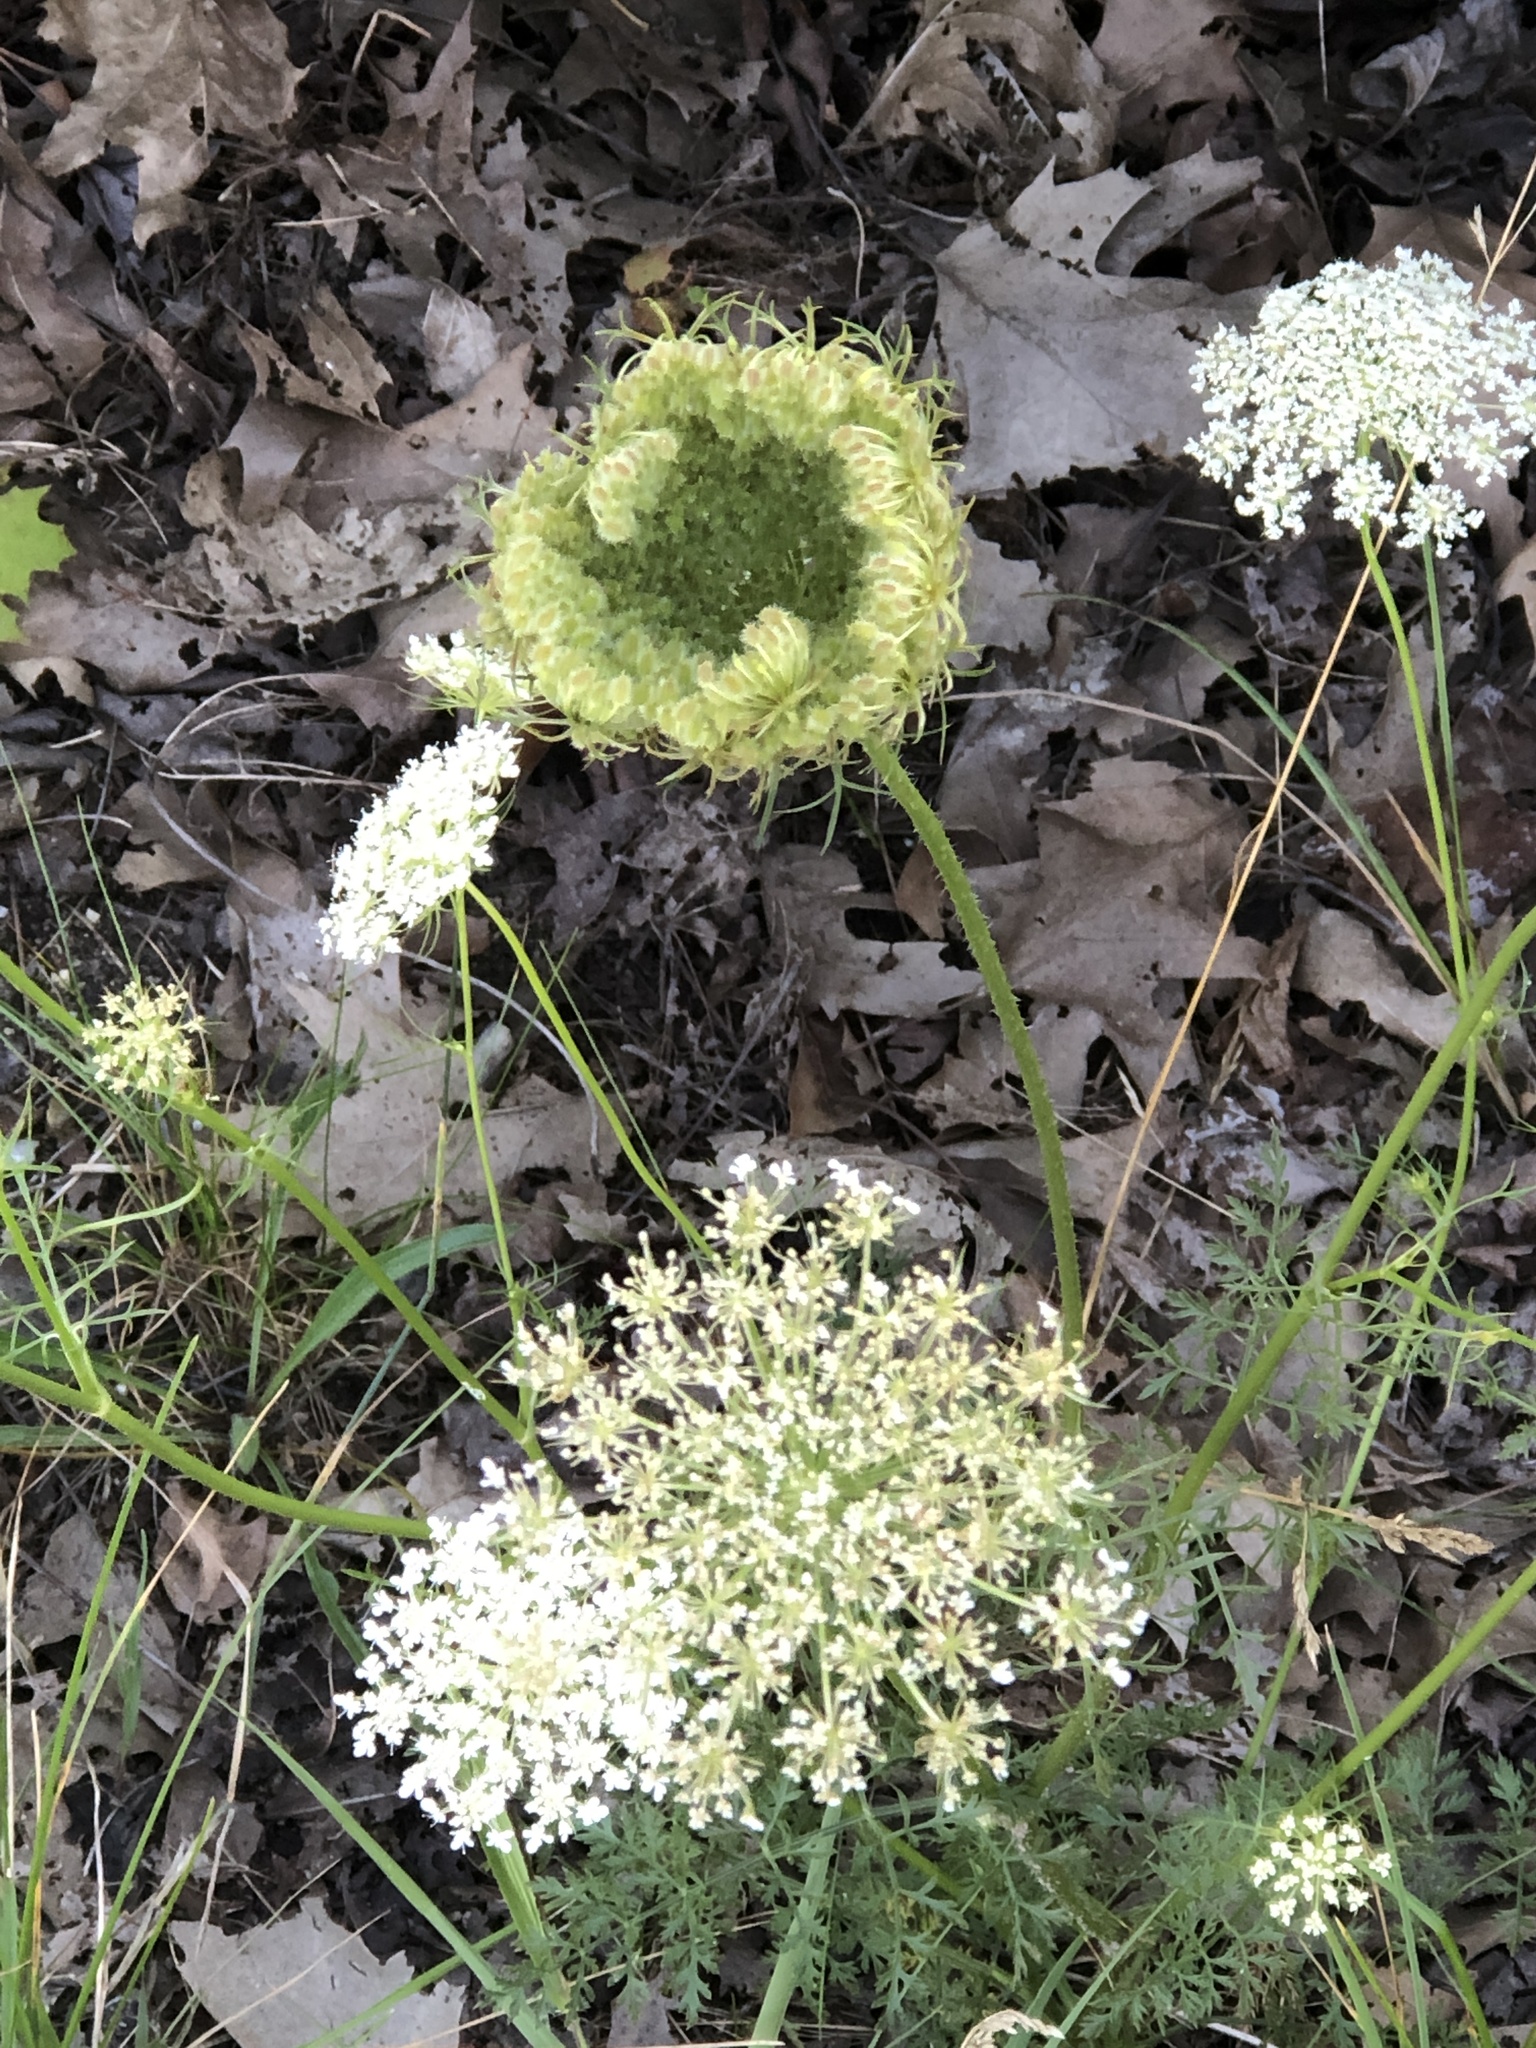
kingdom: Plantae
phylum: Tracheophyta
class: Magnoliopsida
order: Apiales
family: Apiaceae
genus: Daucus
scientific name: Daucus carota
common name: Wild carrot
